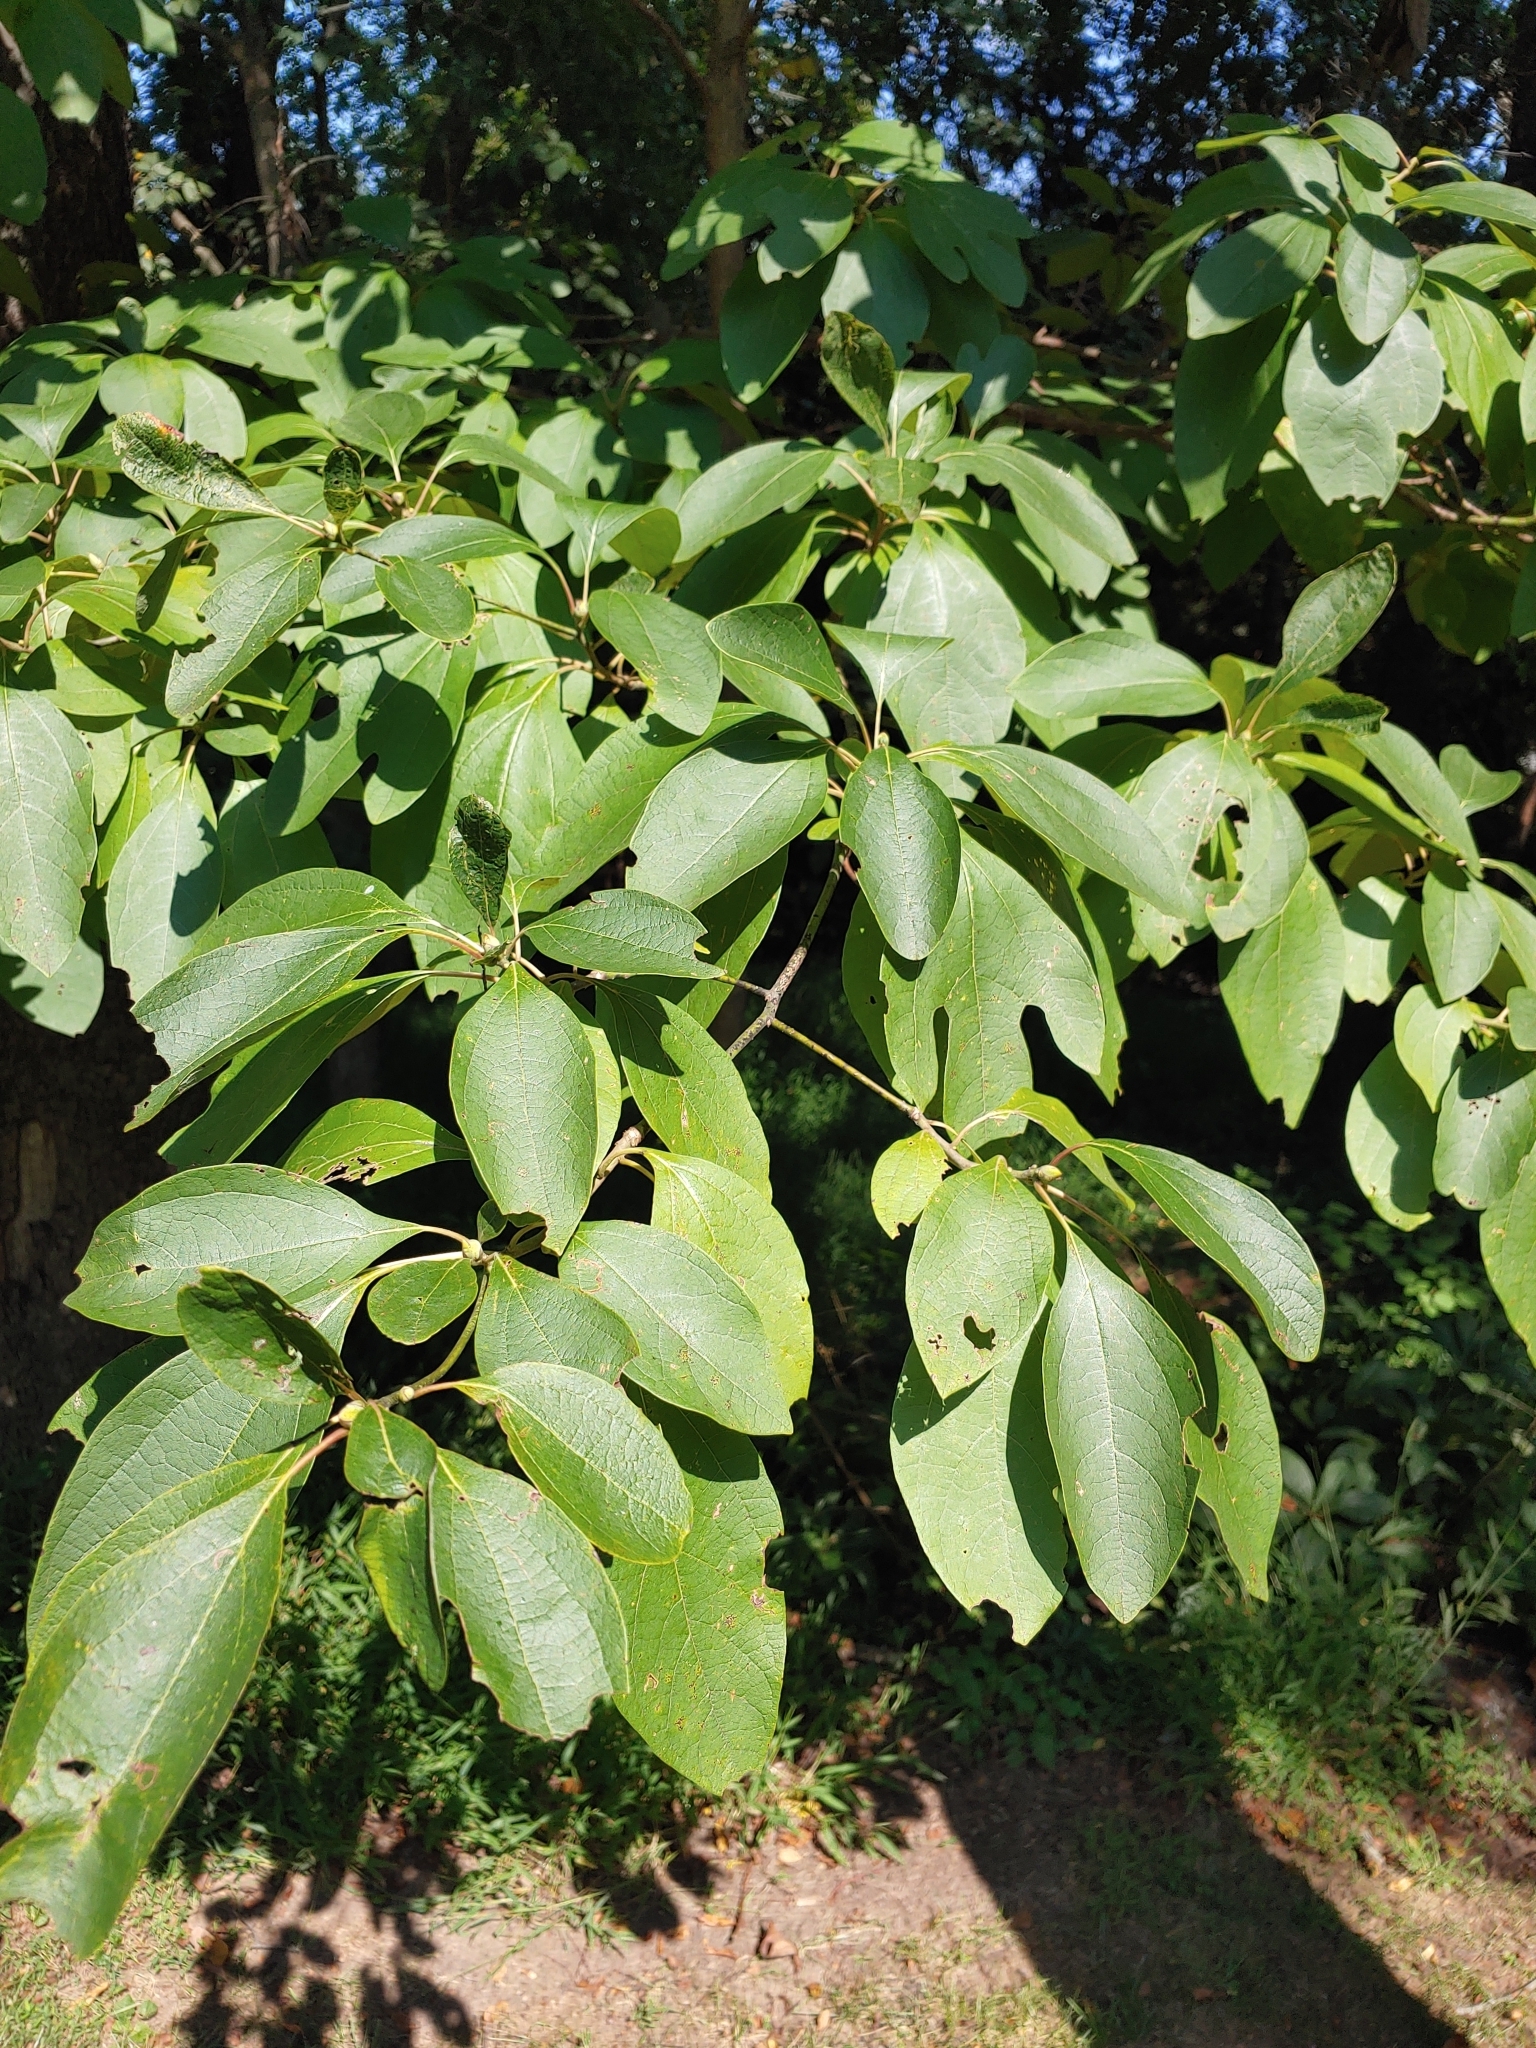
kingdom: Plantae
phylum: Tracheophyta
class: Magnoliopsida
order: Laurales
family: Lauraceae
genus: Sassafras
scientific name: Sassafras albidum
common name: Sassafras
